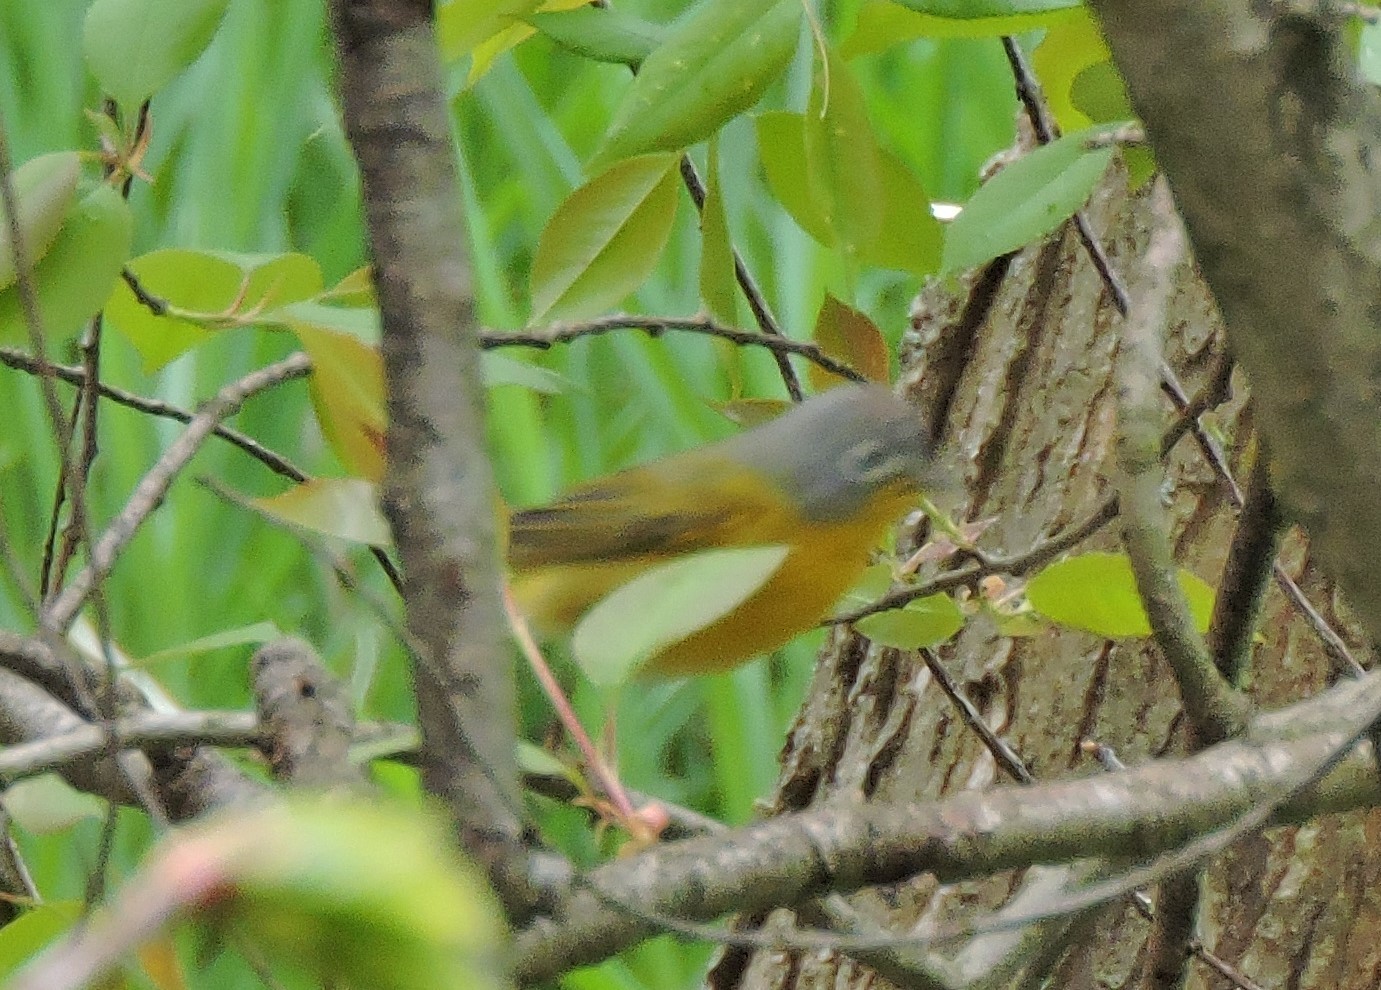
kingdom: Animalia
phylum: Chordata
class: Aves
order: Passeriformes
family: Parulidae
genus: Leiothlypis
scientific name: Leiothlypis ruficapilla
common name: Nashville warbler
